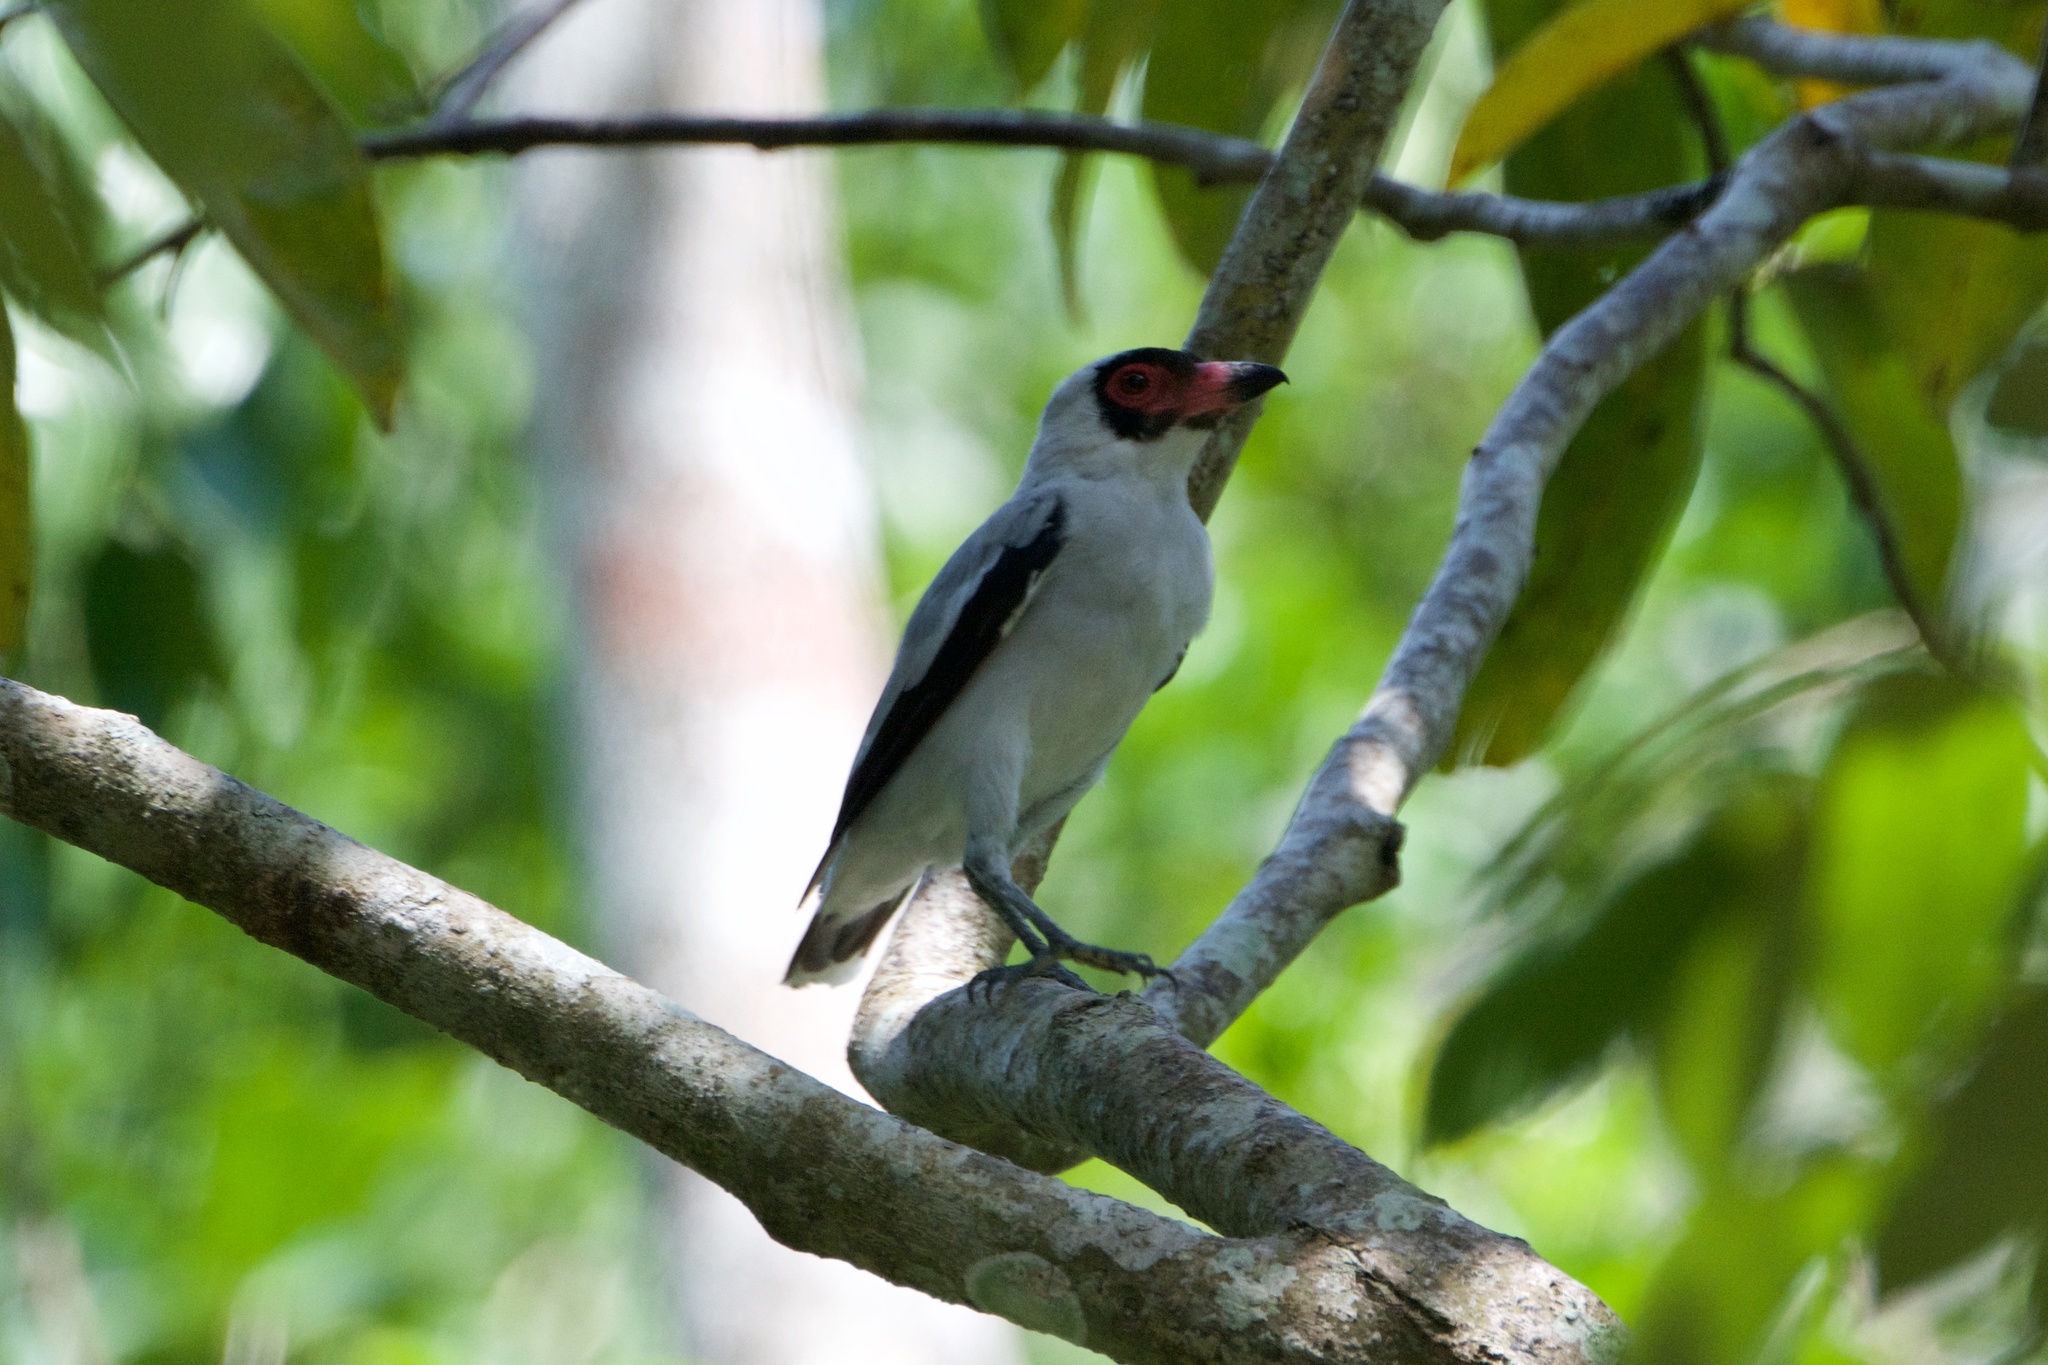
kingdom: Animalia
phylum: Chordata
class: Aves
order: Passeriformes
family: Cotingidae
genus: Tityra
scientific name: Tityra semifasciata
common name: Masked tityra
